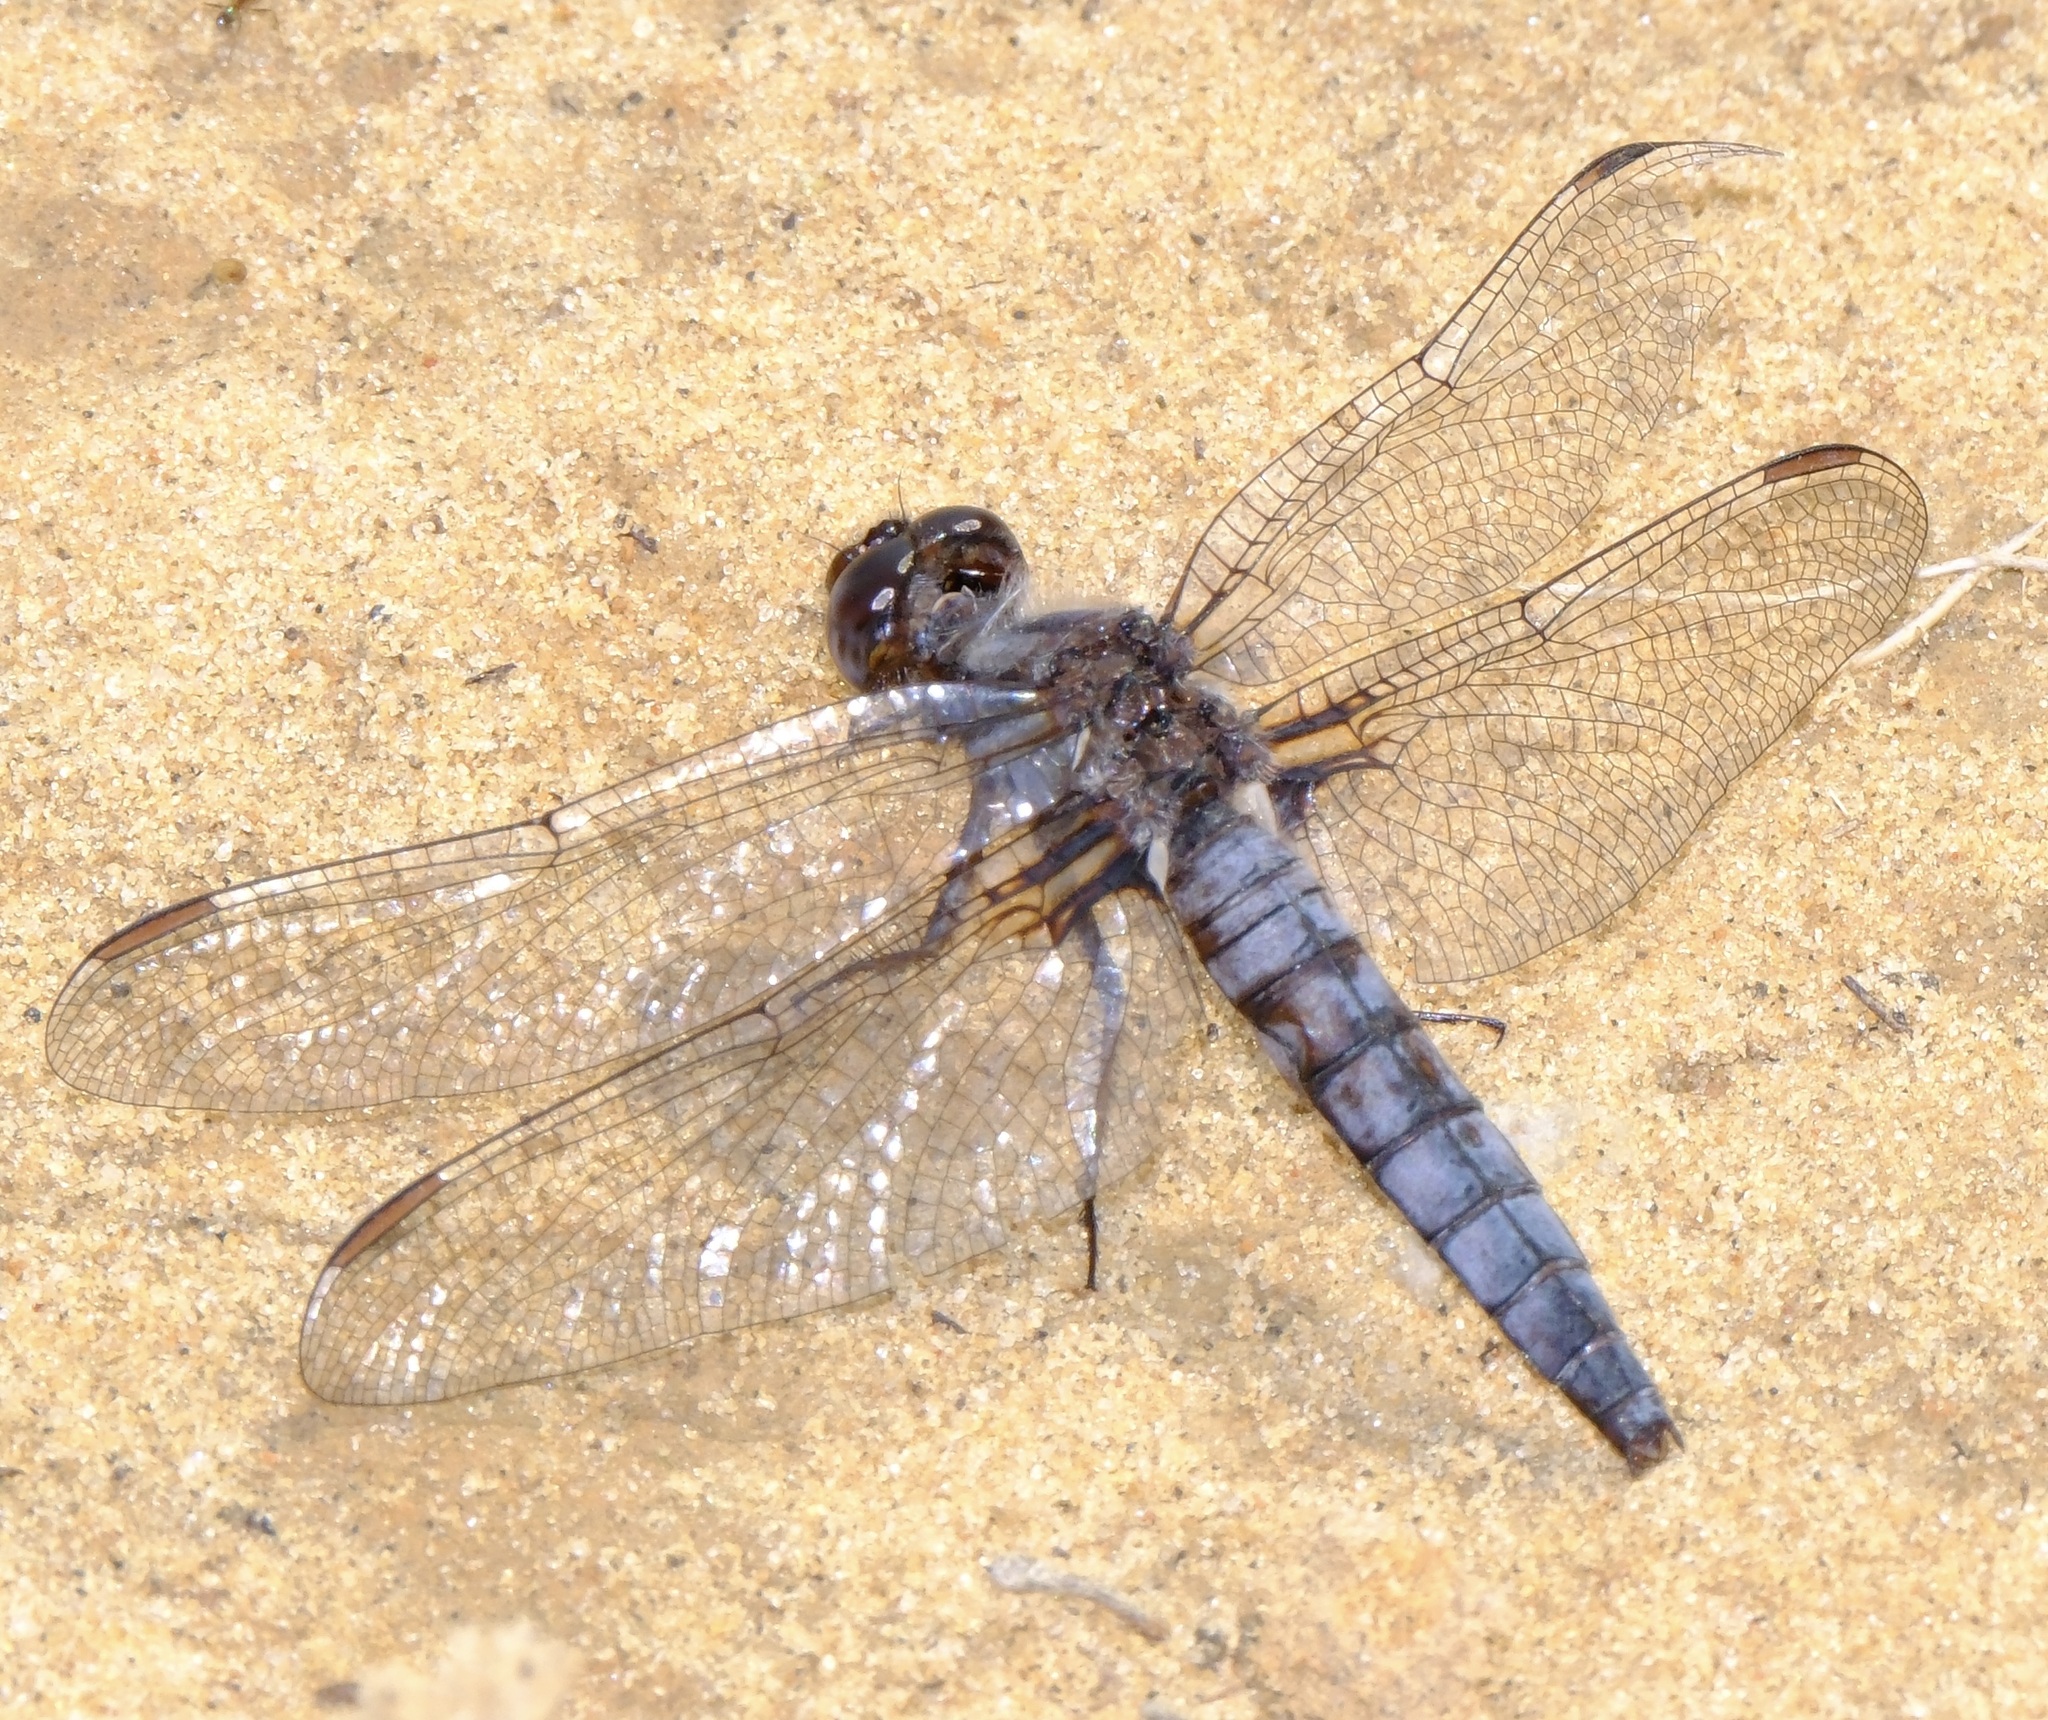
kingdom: Animalia
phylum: Arthropoda
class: Insecta
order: Odonata
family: Libellulidae
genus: Ladona
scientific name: Ladona deplanata
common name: Blue corporal
